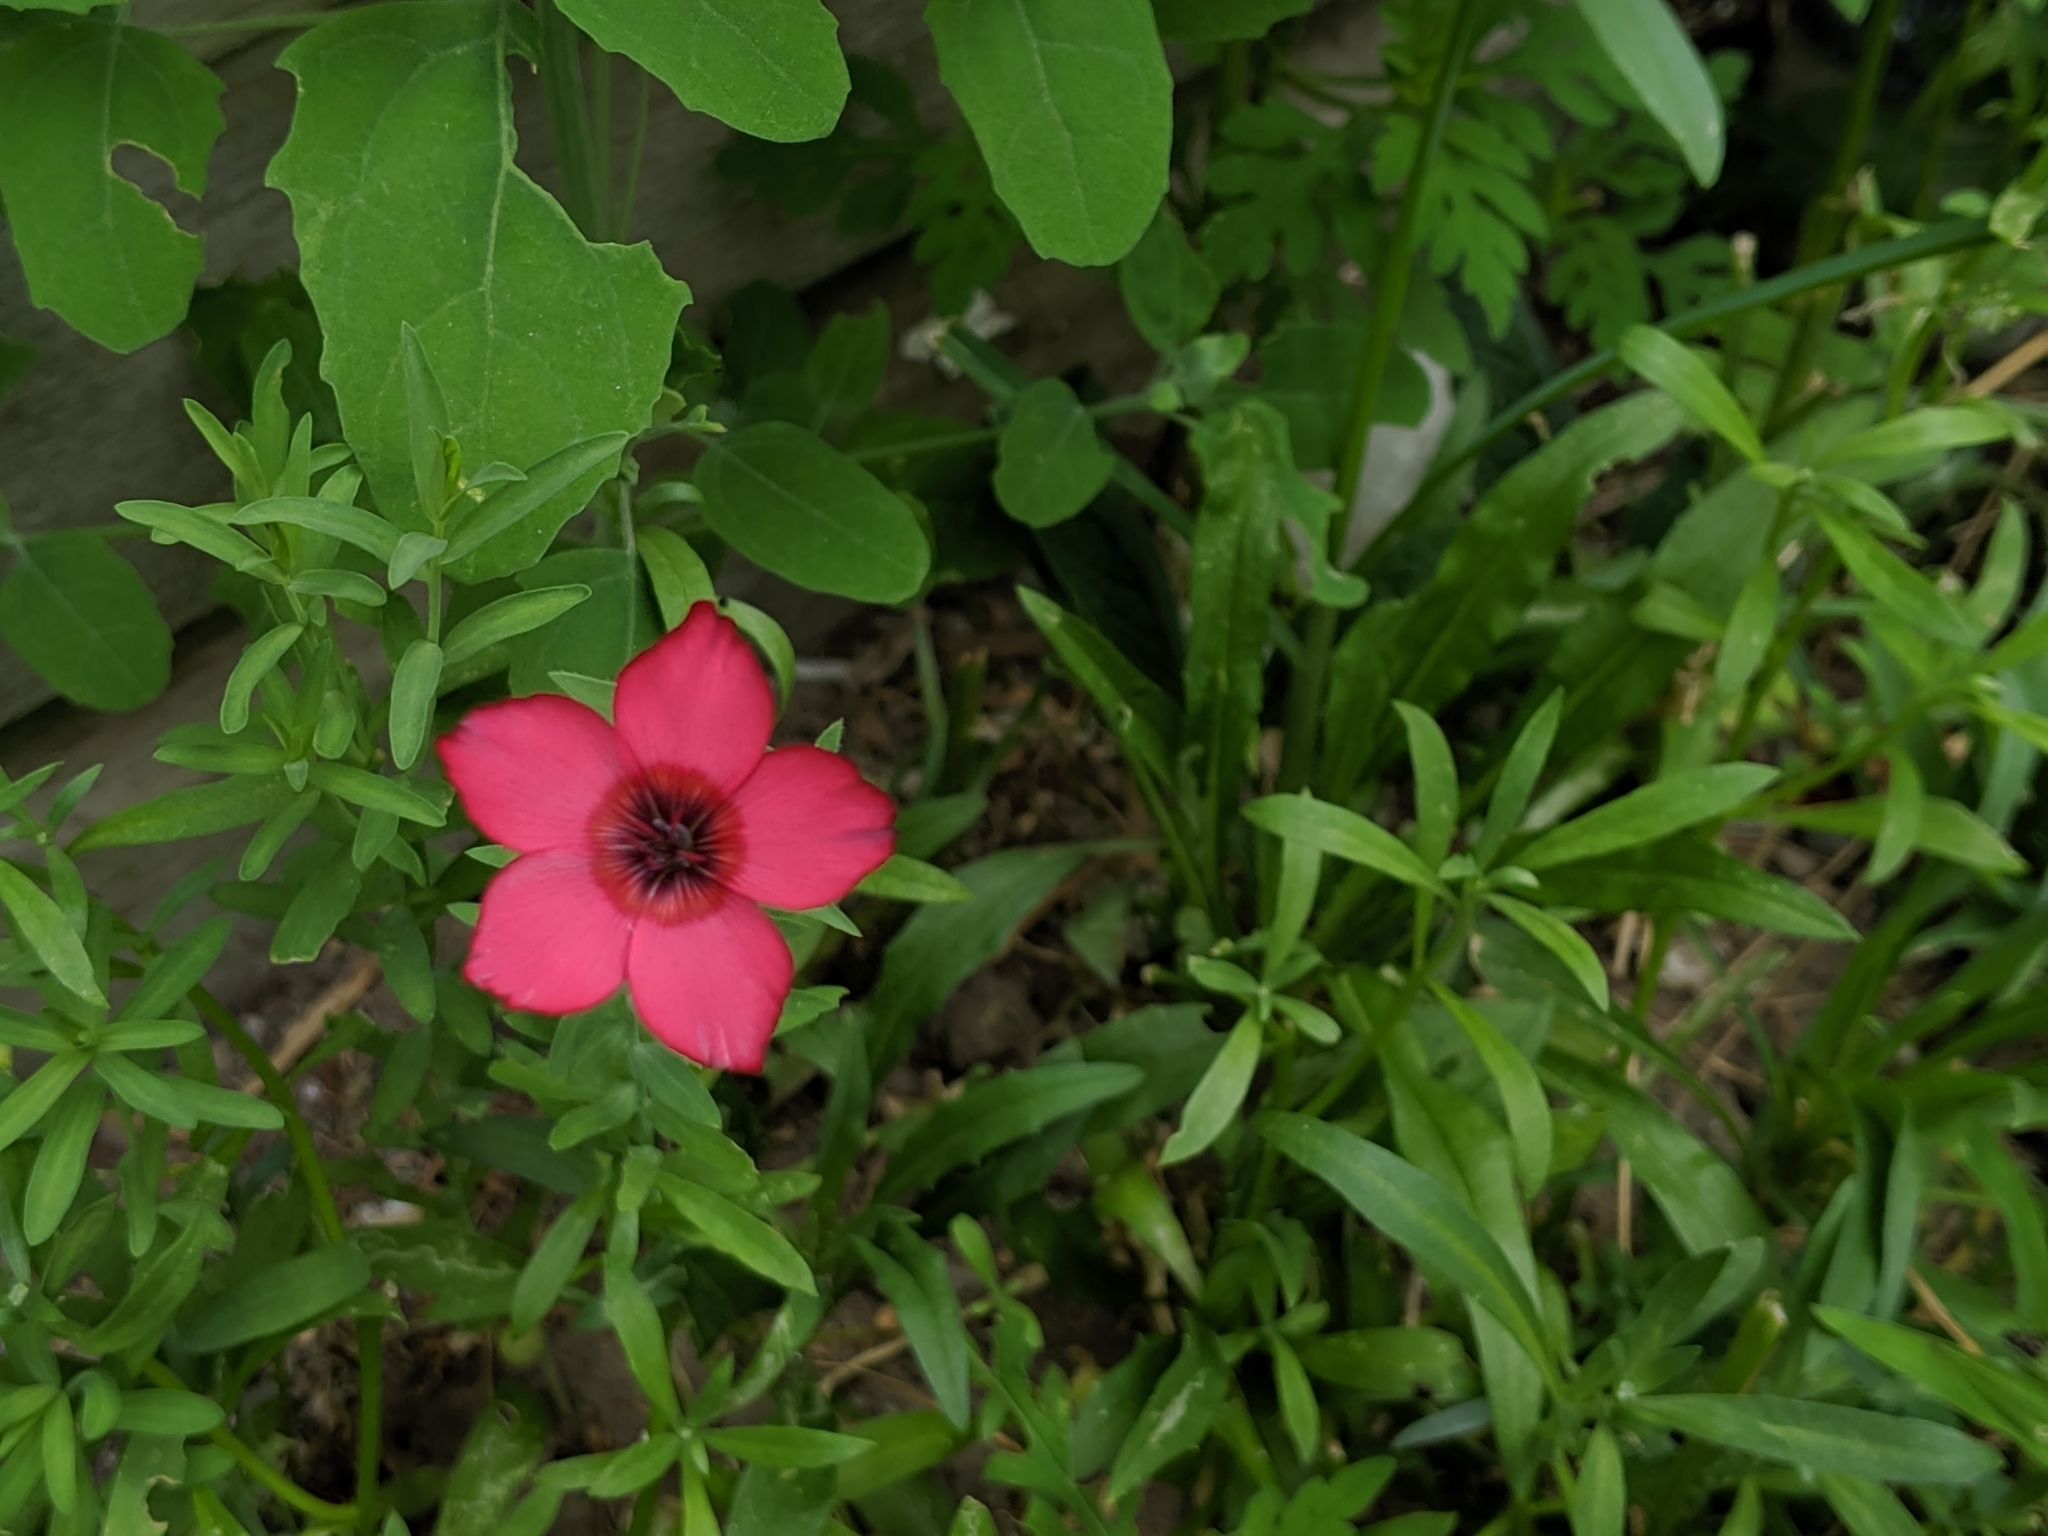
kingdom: Plantae
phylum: Tracheophyta
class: Magnoliopsida
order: Malpighiales
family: Linaceae
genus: Linum
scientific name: Linum grandiflorum
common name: Crimson flax
